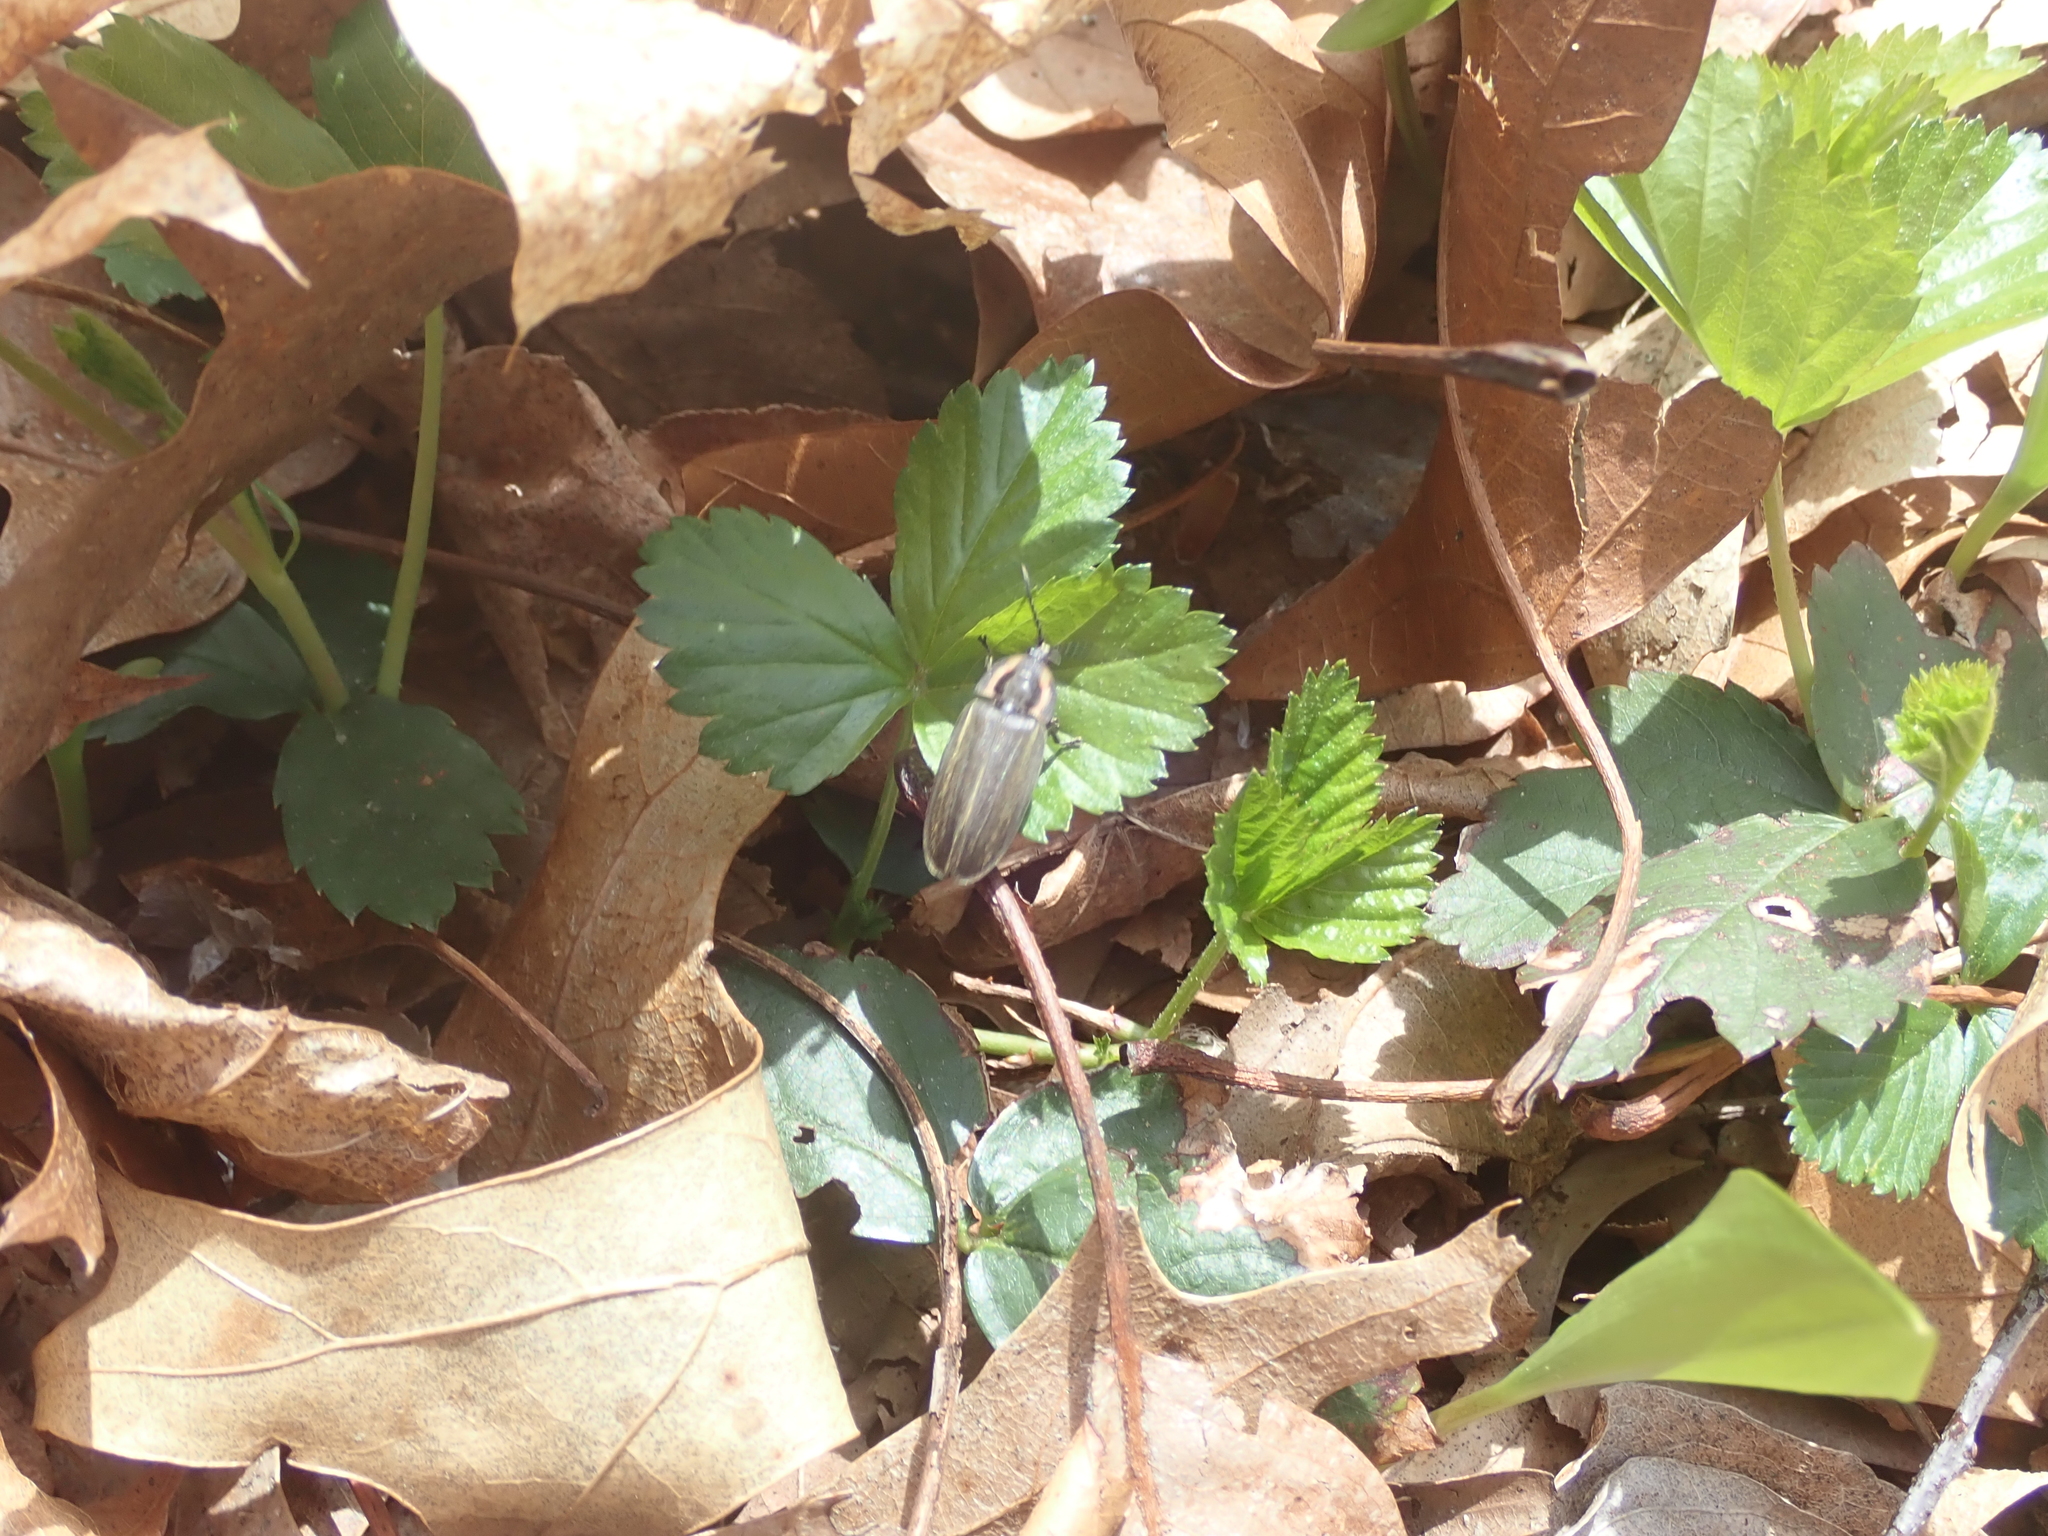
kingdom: Animalia
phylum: Arthropoda
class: Insecta
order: Coleoptera
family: Lampyridae
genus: Photinus
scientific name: Photinus corrusca
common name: Winter firefly
